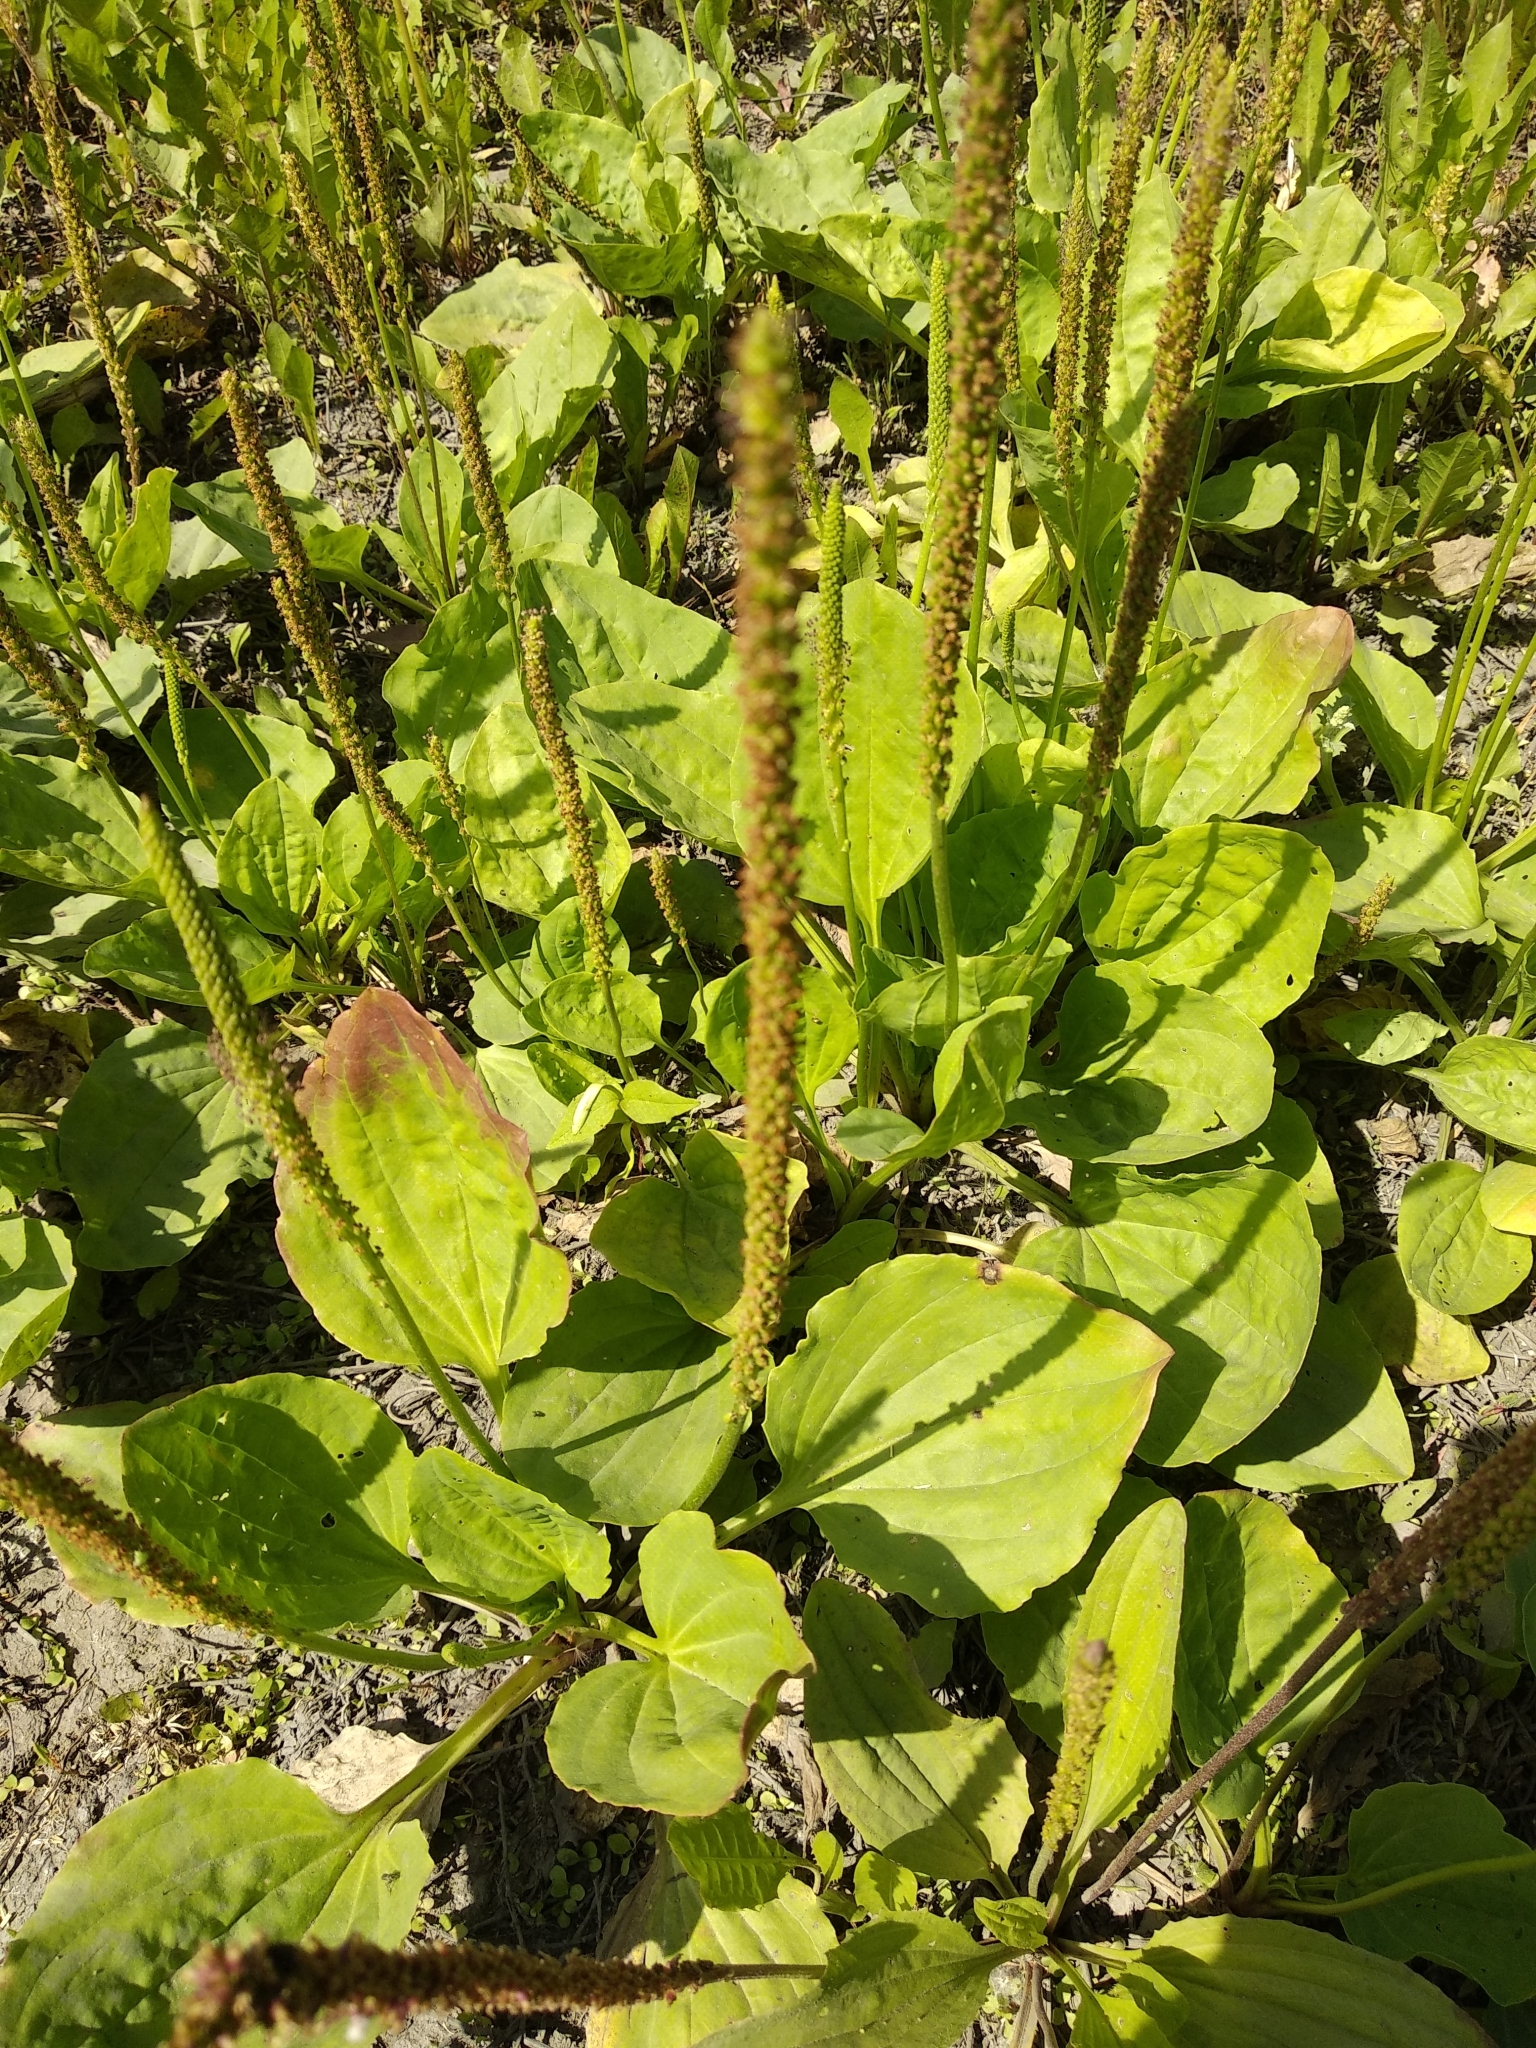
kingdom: Plantae
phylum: Tracheophyta
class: Magnoliopsida
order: Lamiales
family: Plantaginaceae
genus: Plantago
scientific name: Plantago major
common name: Common plantain
